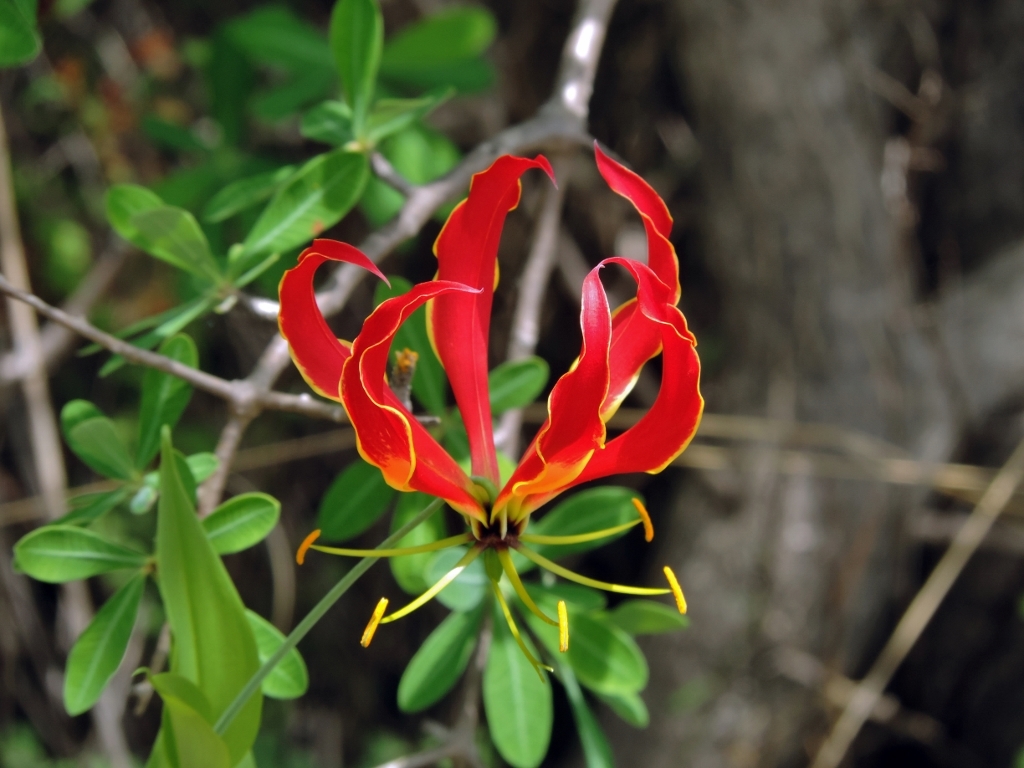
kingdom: Plantae
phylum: Tracheophyta
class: Liliopsida
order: Liliales
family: Colchicaceae
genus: Gloriosa
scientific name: Gloriosa superba
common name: Flame lily
